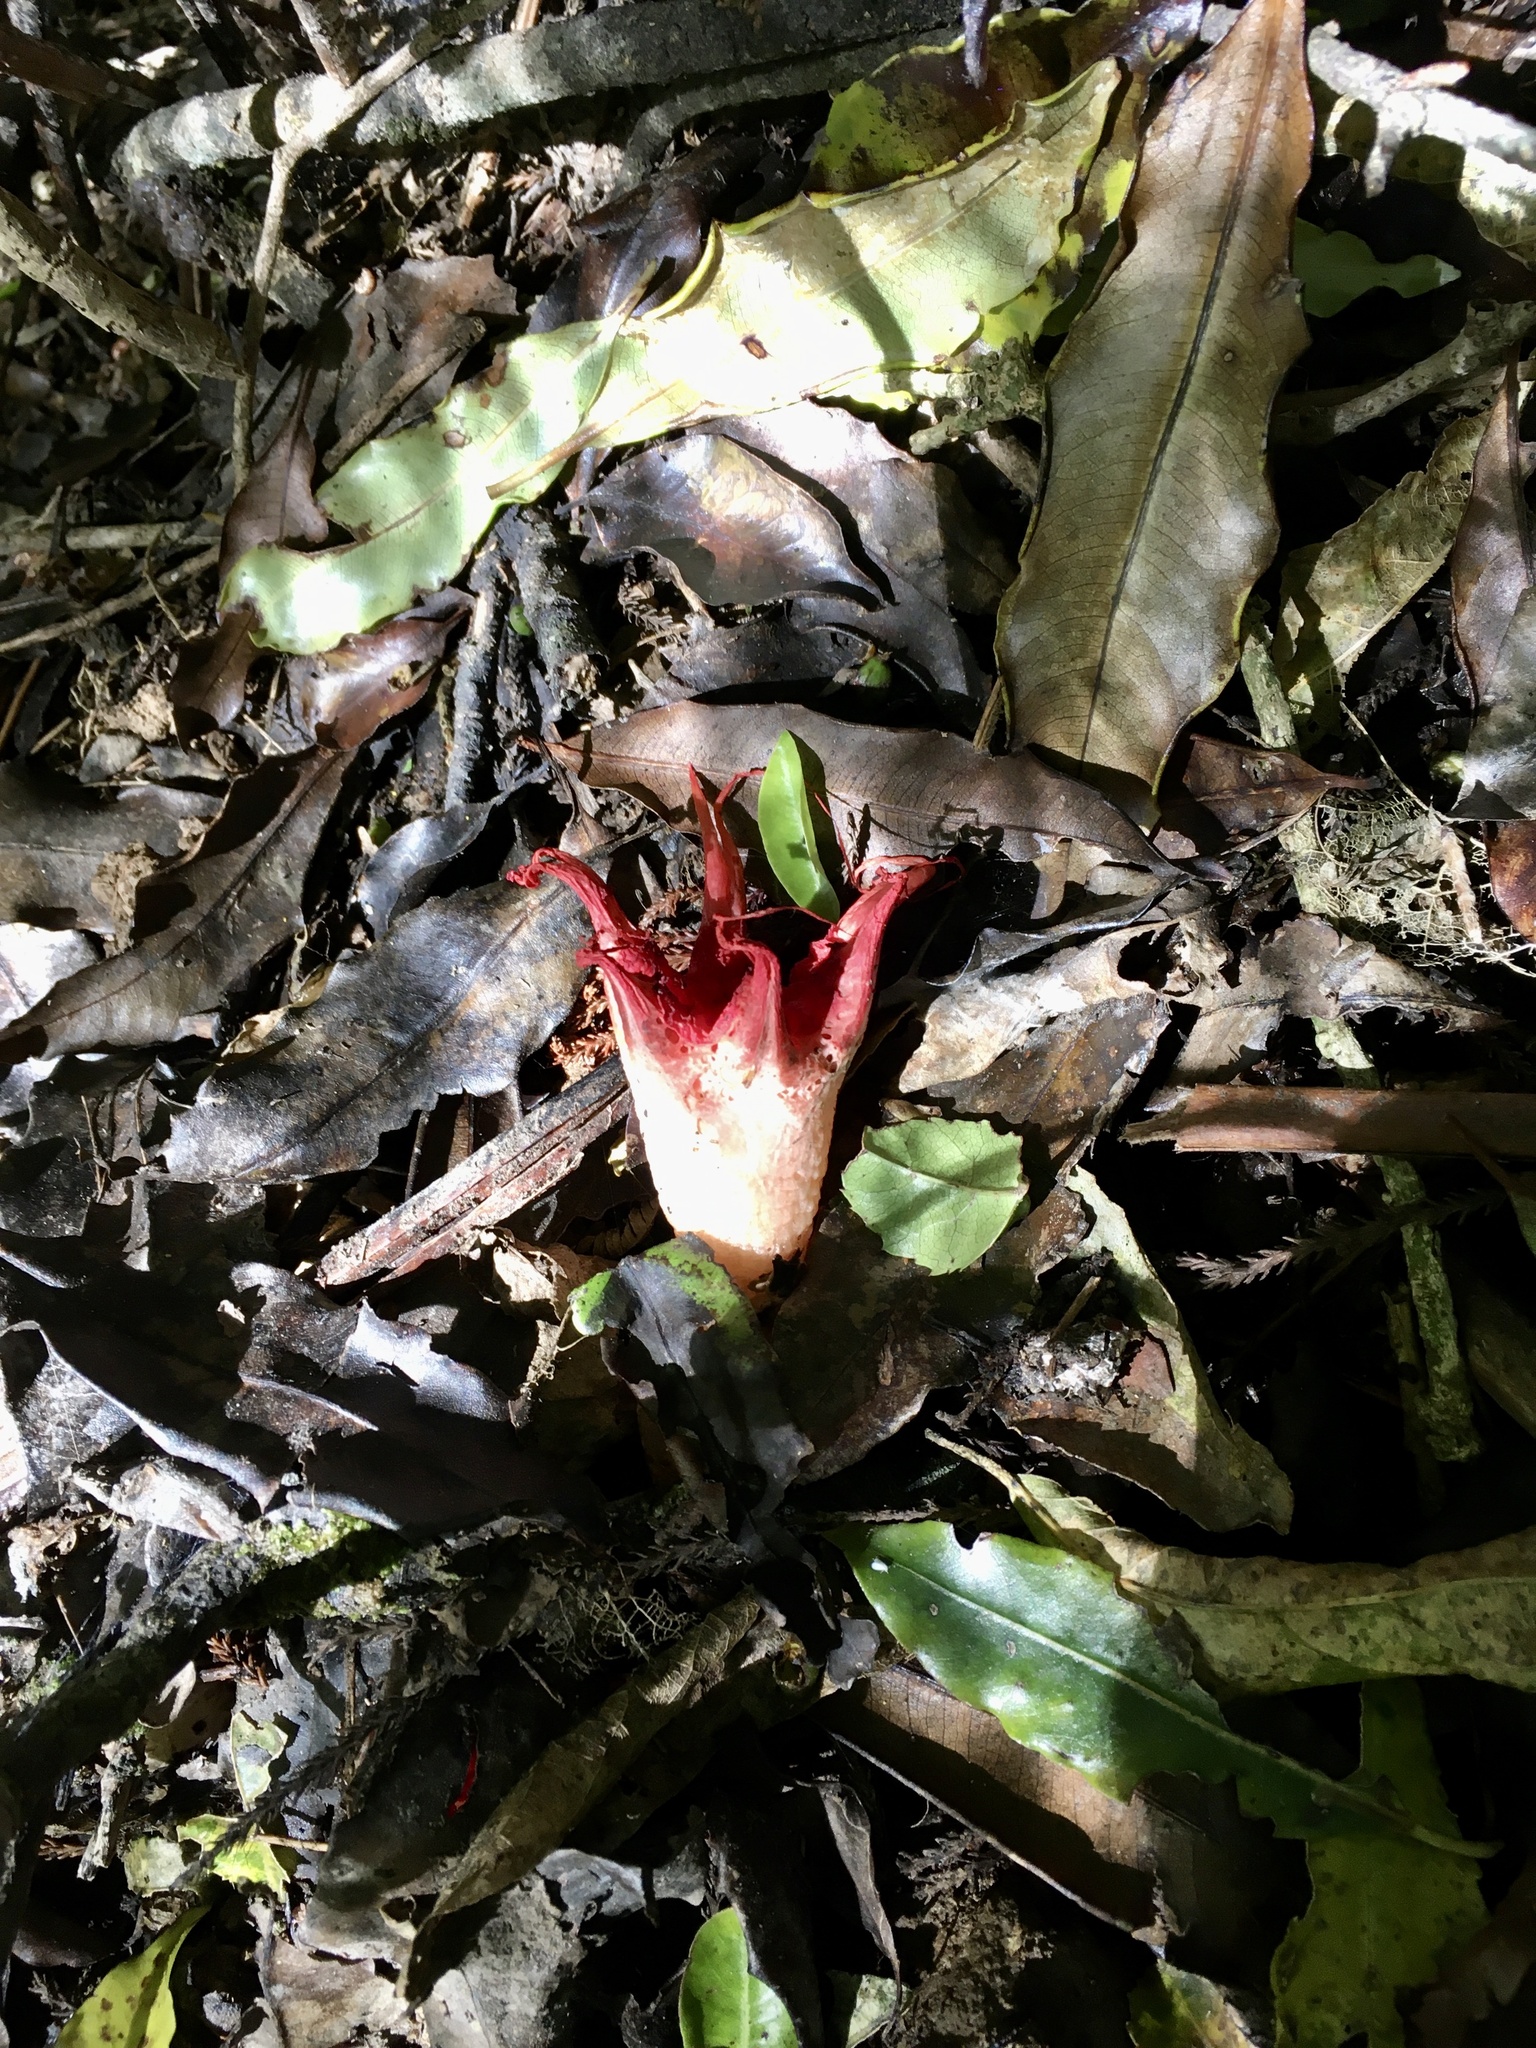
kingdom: Fungi
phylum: Basidiomycota
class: Agaricomycetes
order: Phallales
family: Phallaceae
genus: Aseroe
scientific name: Aseroe rubra
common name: Starfish fungus
